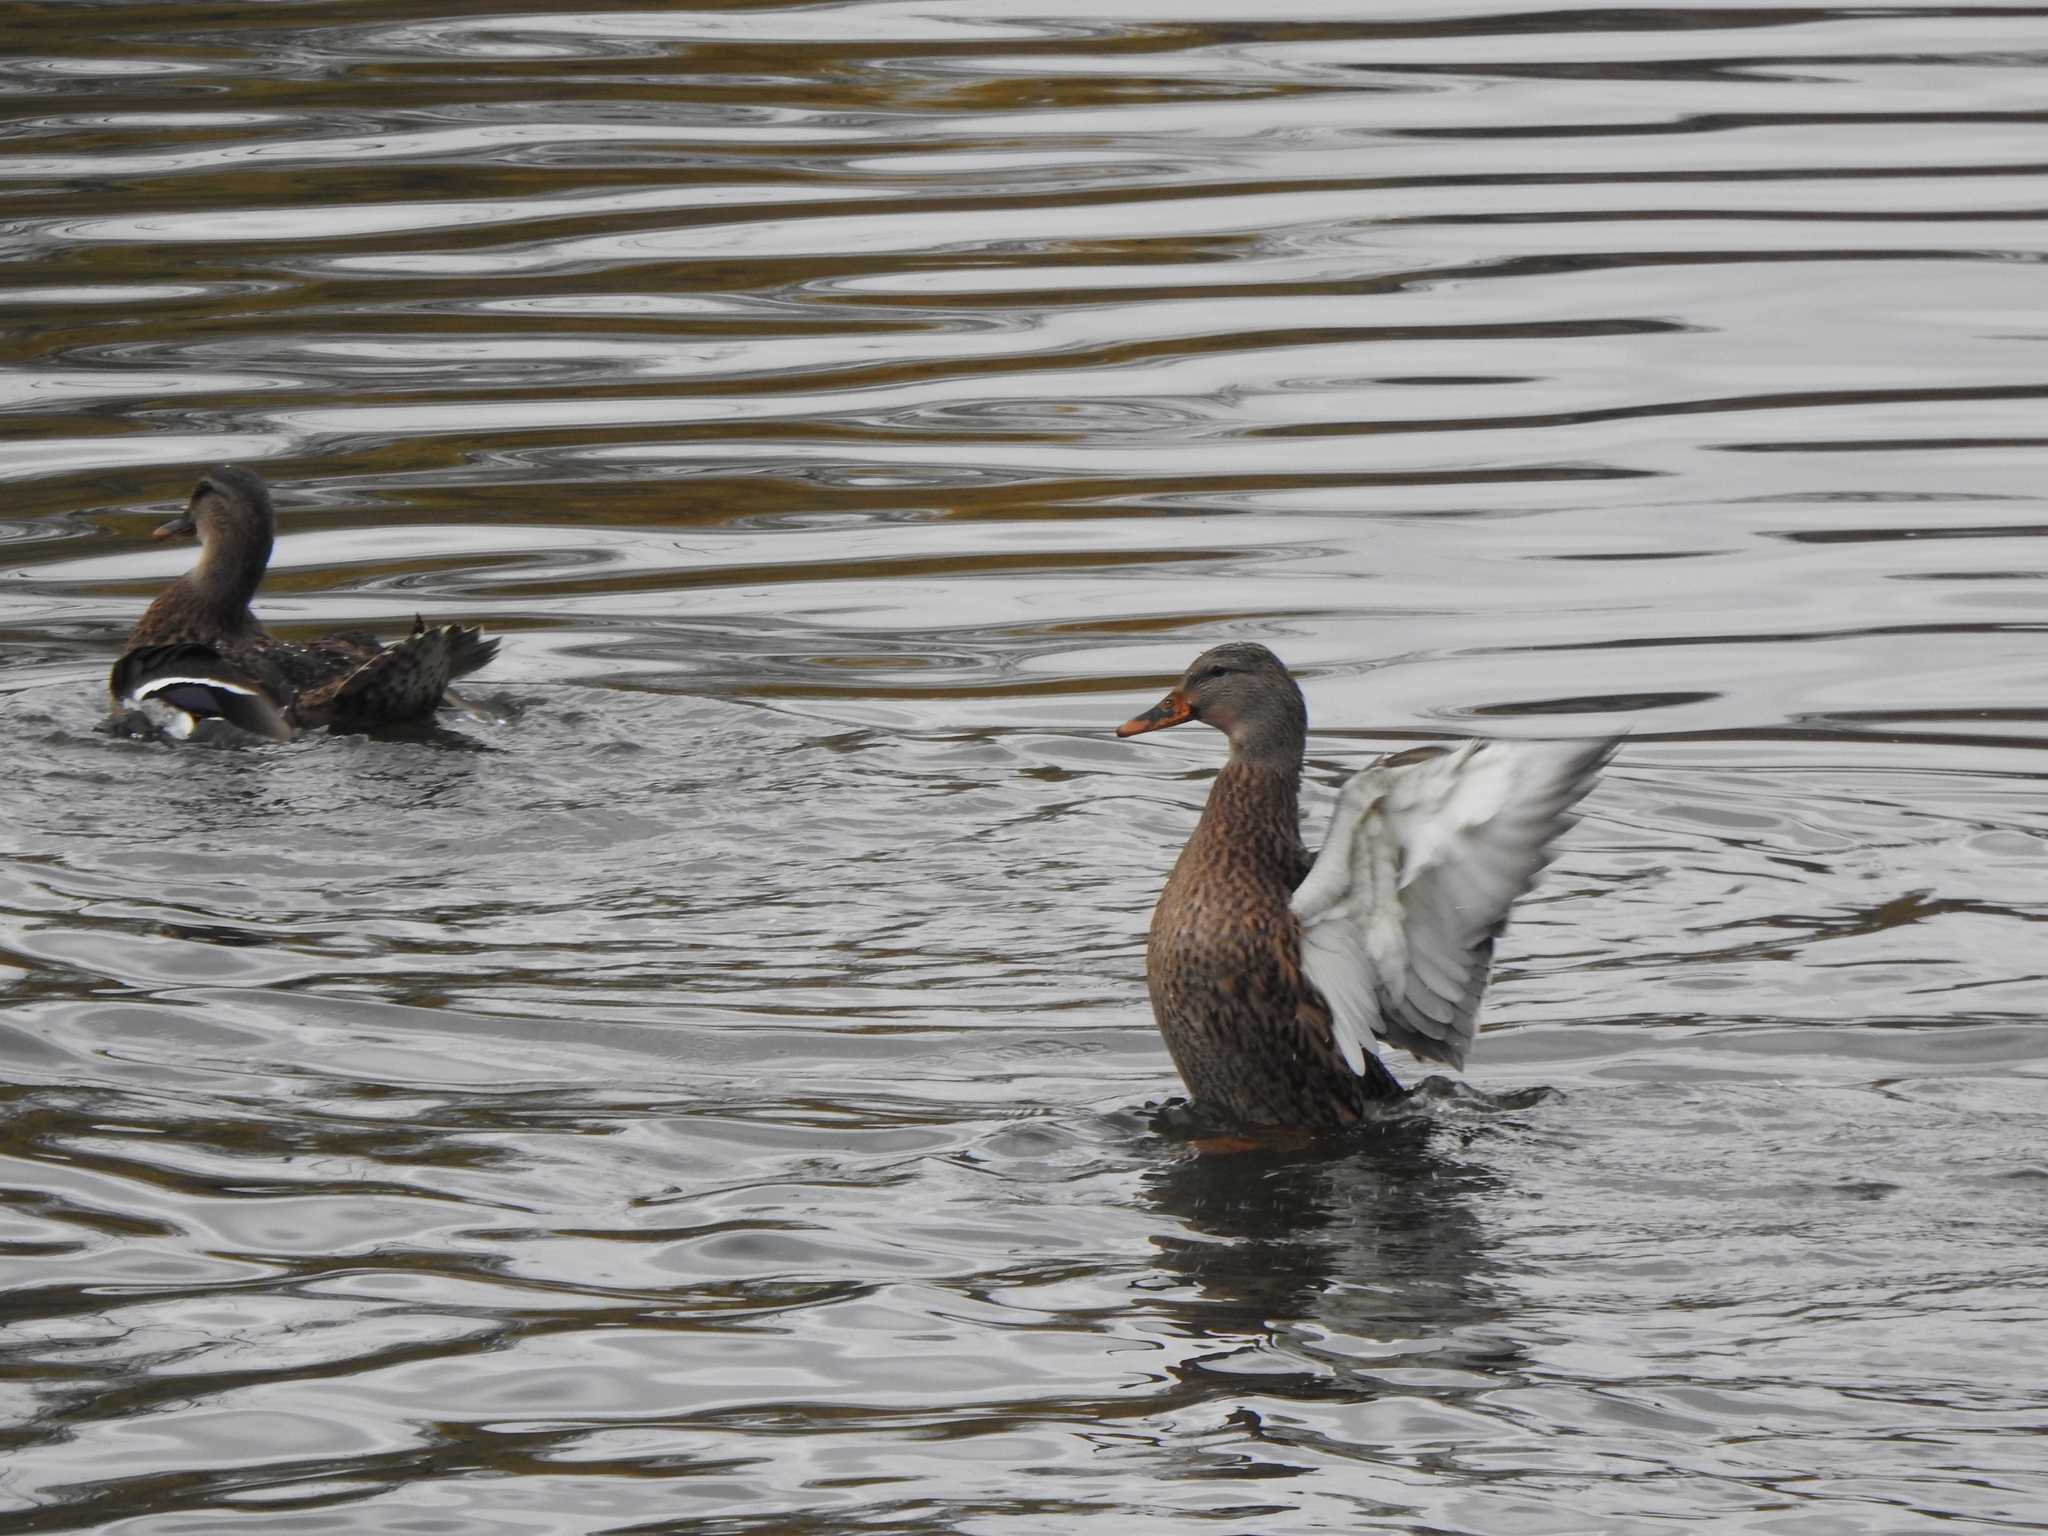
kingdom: Animalia
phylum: Chordata
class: Aves
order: Anseriformes
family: Anatidae
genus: Anas
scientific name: Anas platyrhynchos
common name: Mallard
